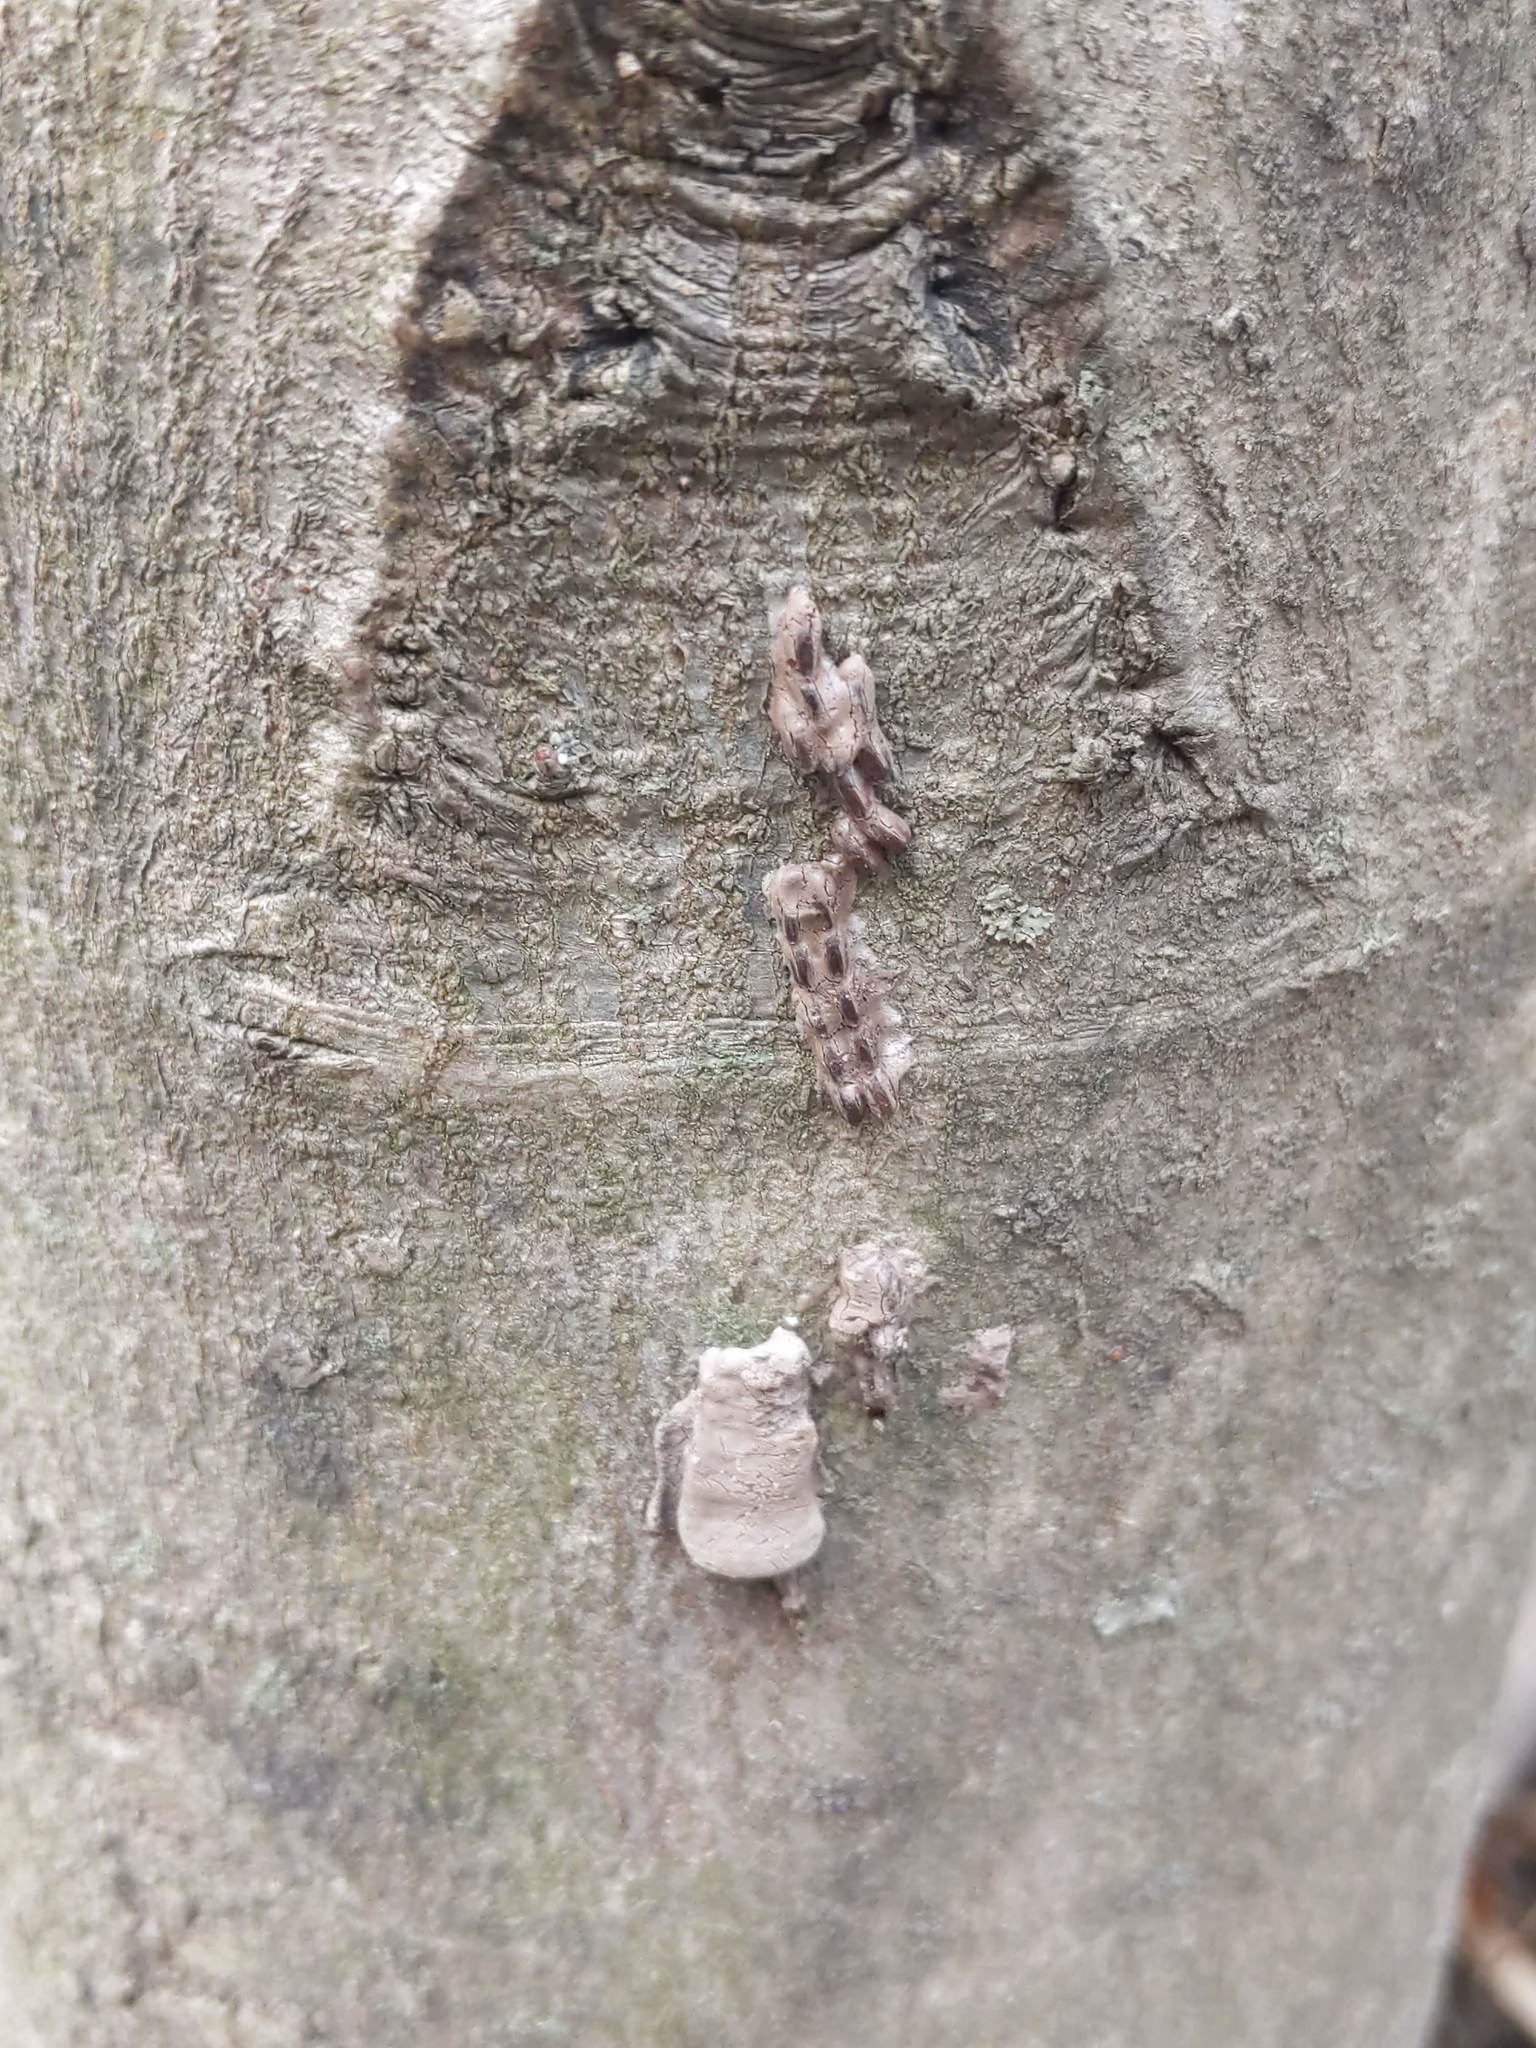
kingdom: Animalia
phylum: Arthropoda
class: Insecta
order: Hemiptera
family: Fulgoridae
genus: Lycorma
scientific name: Lycorma delicatula
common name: Spotted lanternfly
